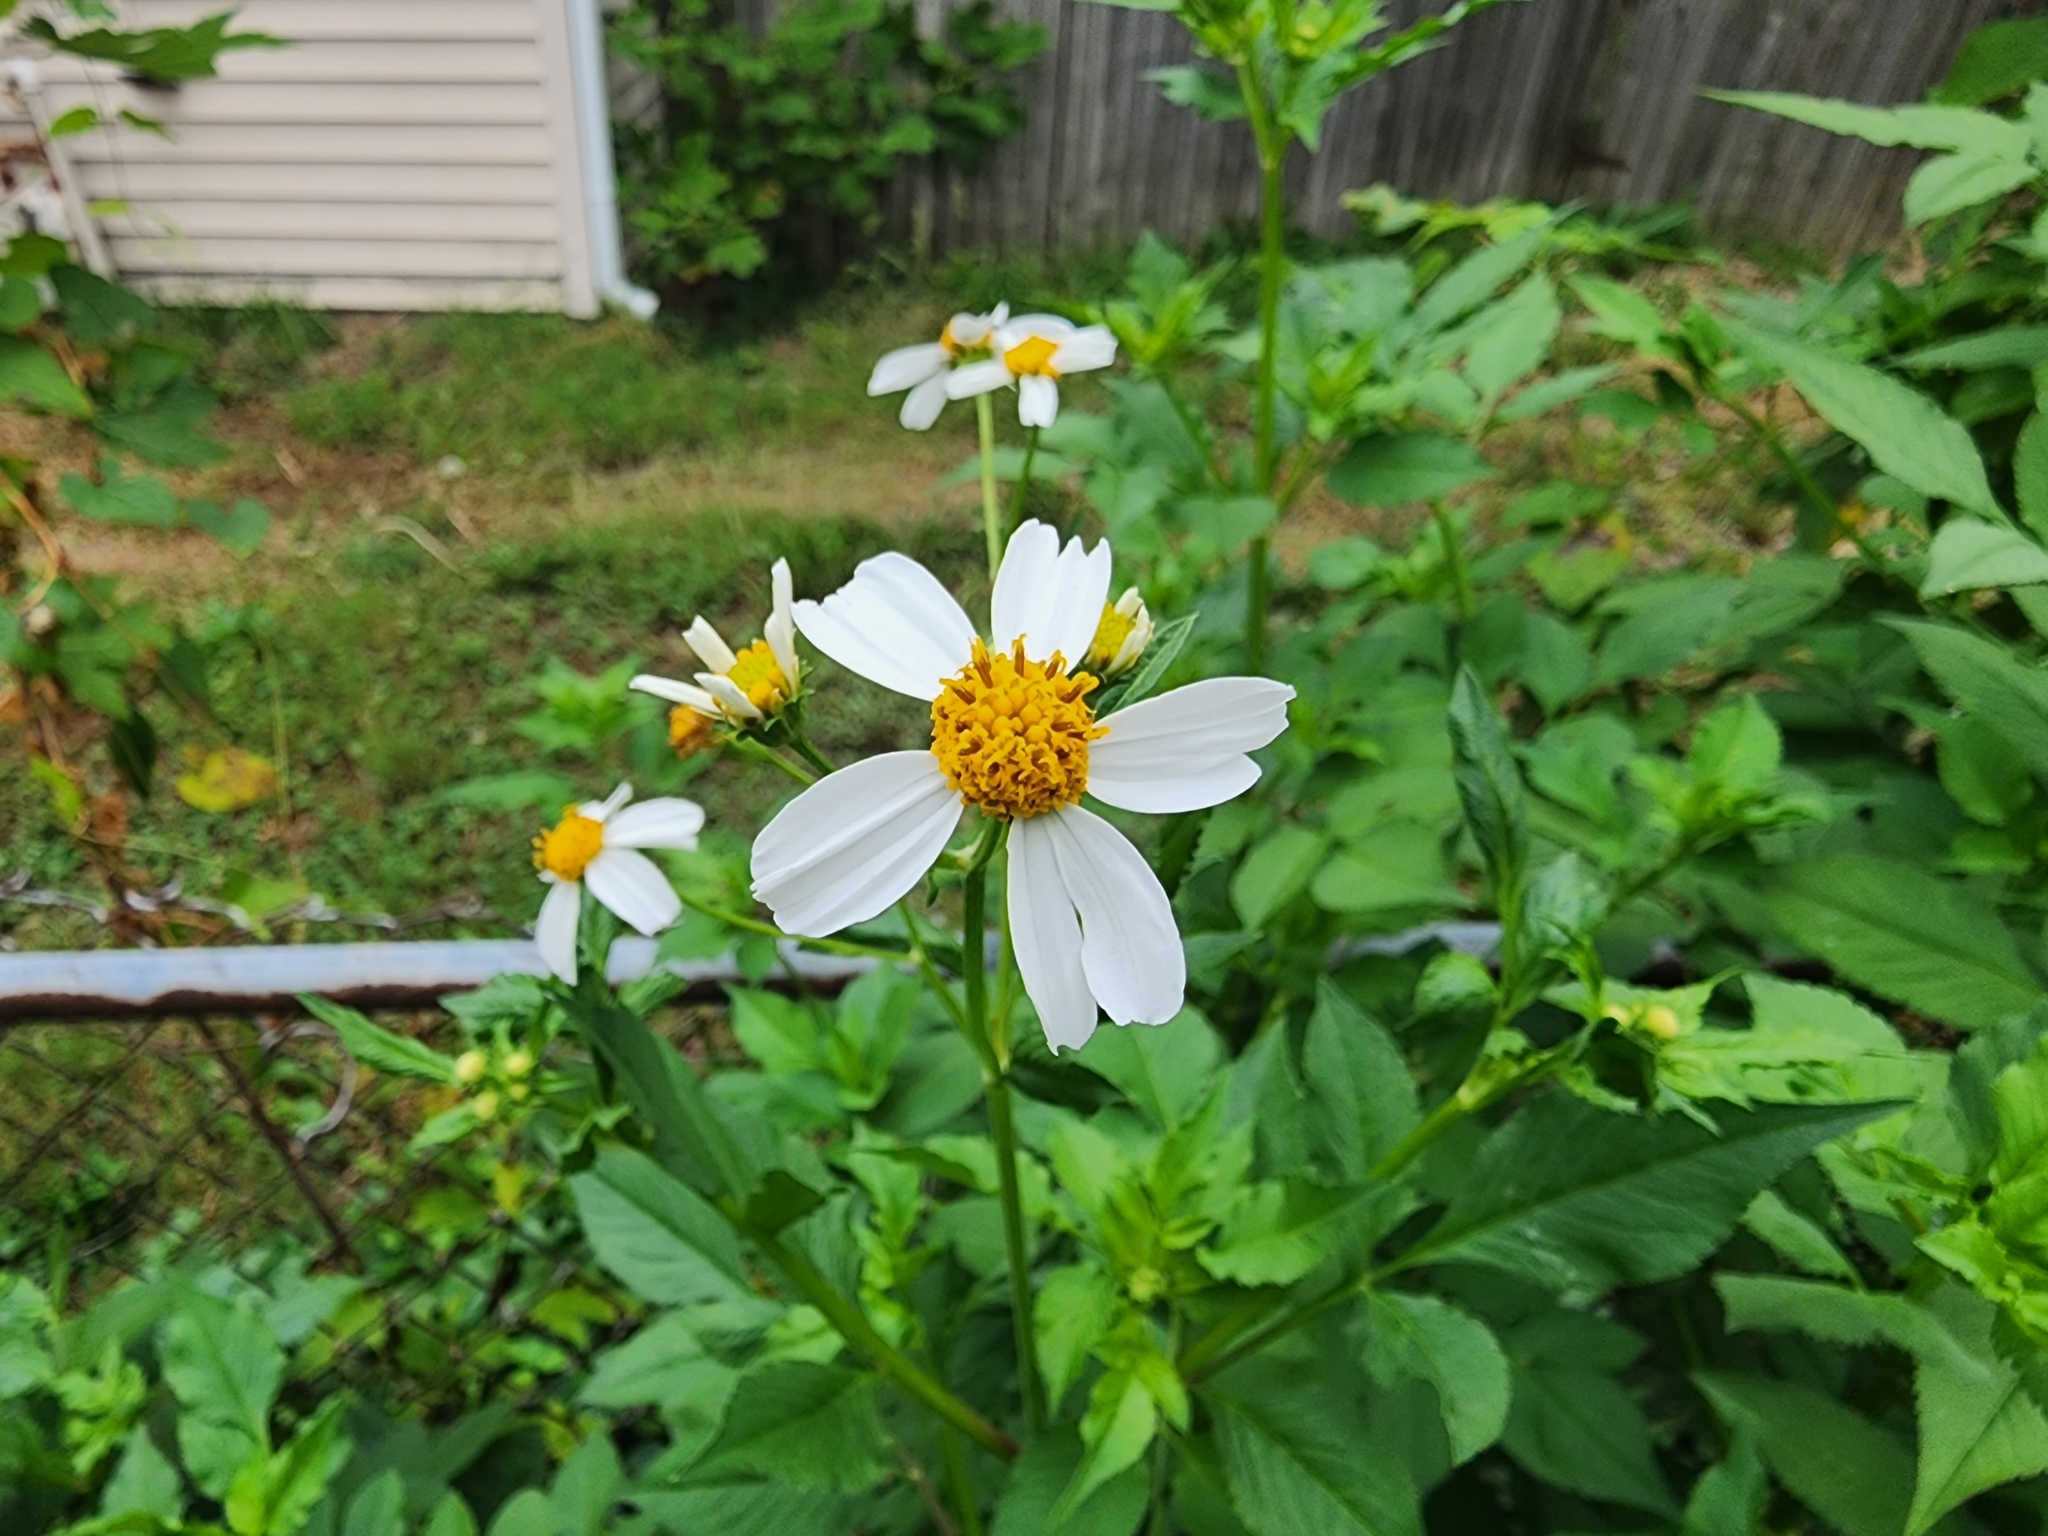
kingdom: Plantae
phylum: Tracheophyta
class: Magnoliopsida
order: Asterales
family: Asteraceae
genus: Bidens
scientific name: Bidens alba
